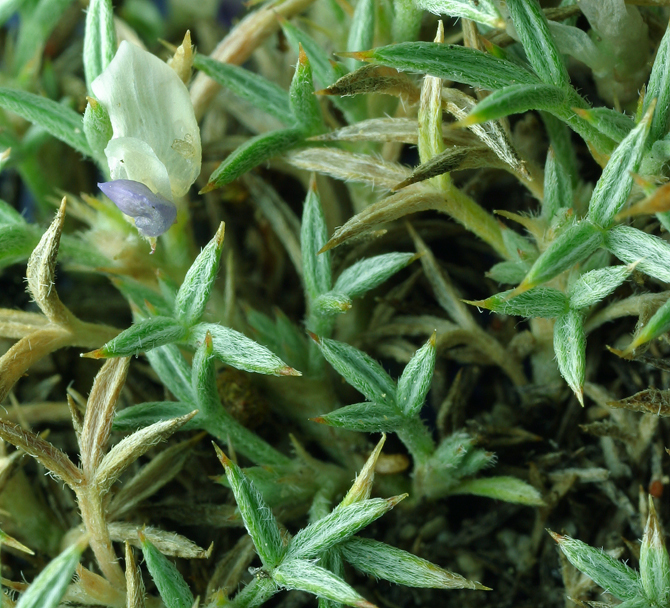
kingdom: Plantae
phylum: Tracheophyta
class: Magnoliopsida
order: Fabales
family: Fabaceae
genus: Astragalus
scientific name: Astragalus kentrophyta
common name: Prickly milk-vetch
